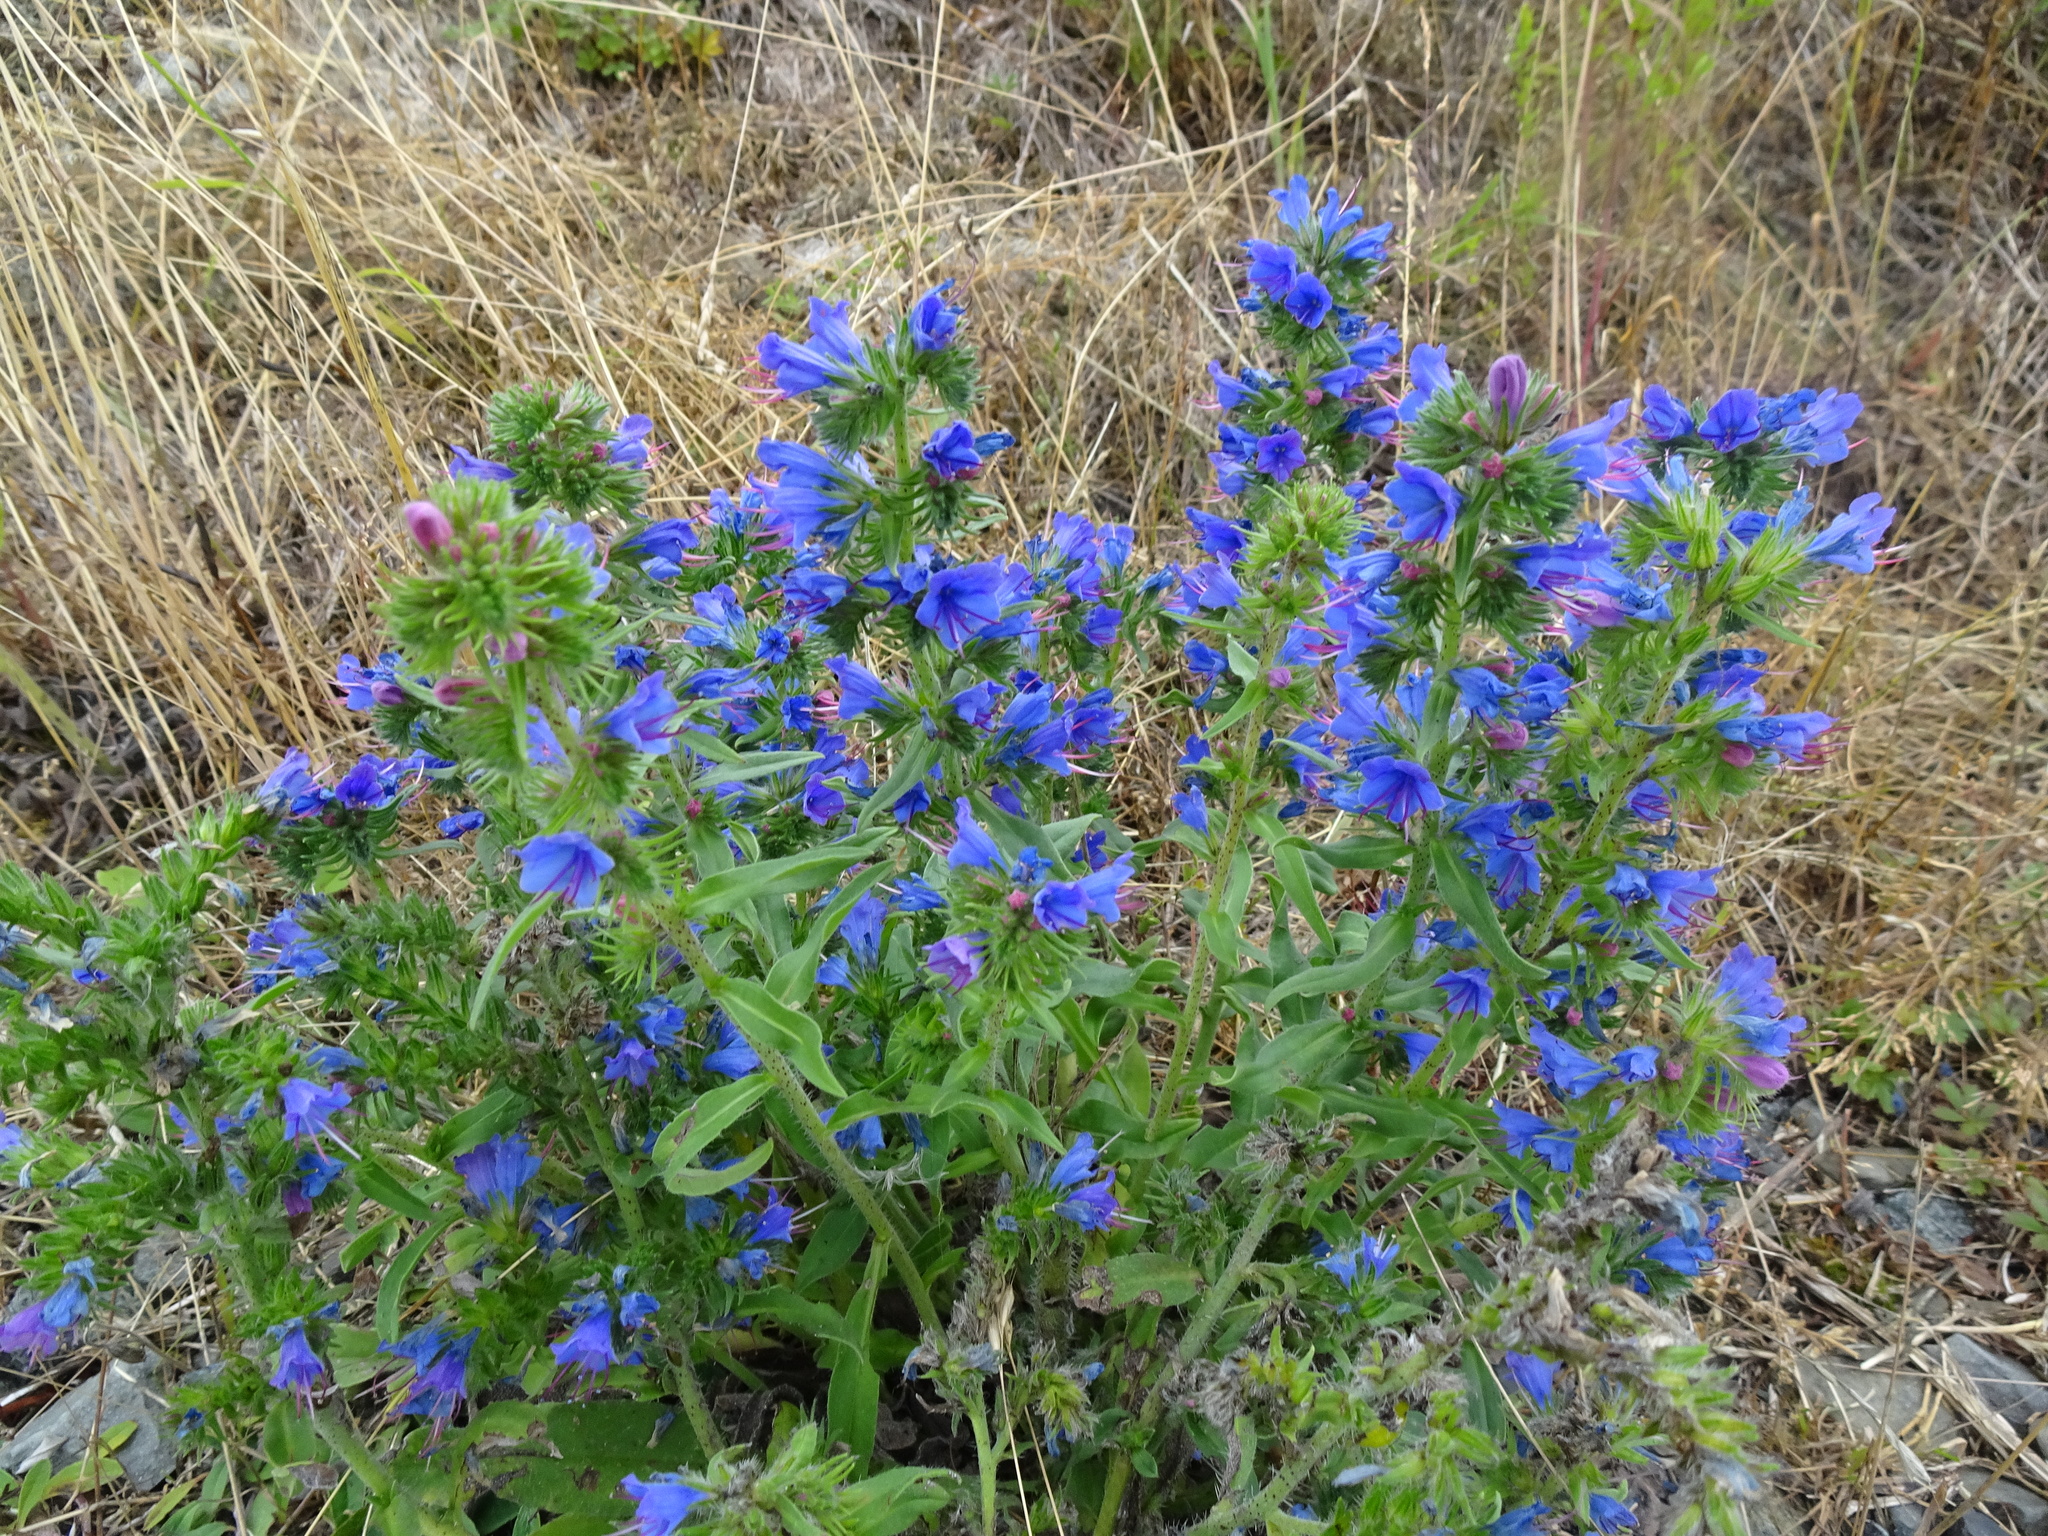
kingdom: Plantae
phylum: Tracheophyta
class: Magnoliopsida
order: Boraginales
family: Boraginaceae
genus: Echium
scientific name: Echium vulgare
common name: Common viper's bugloss
